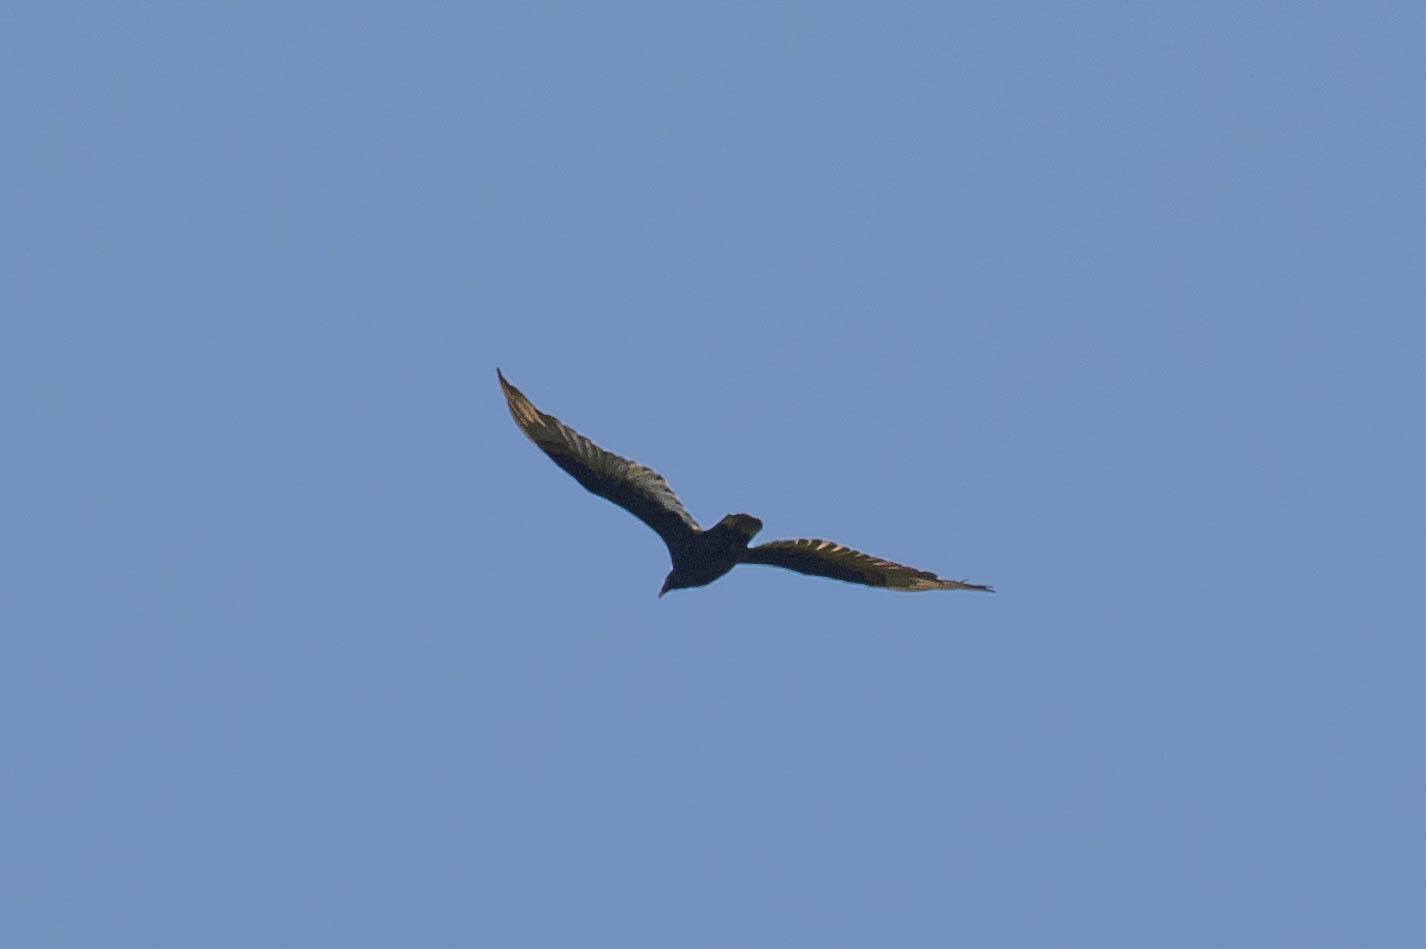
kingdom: Animalia
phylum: Chordata
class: Aves
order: Accipitriformes
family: Cathartidae
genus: Cathartes
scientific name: Cathartes aura
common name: Turkey vulture
